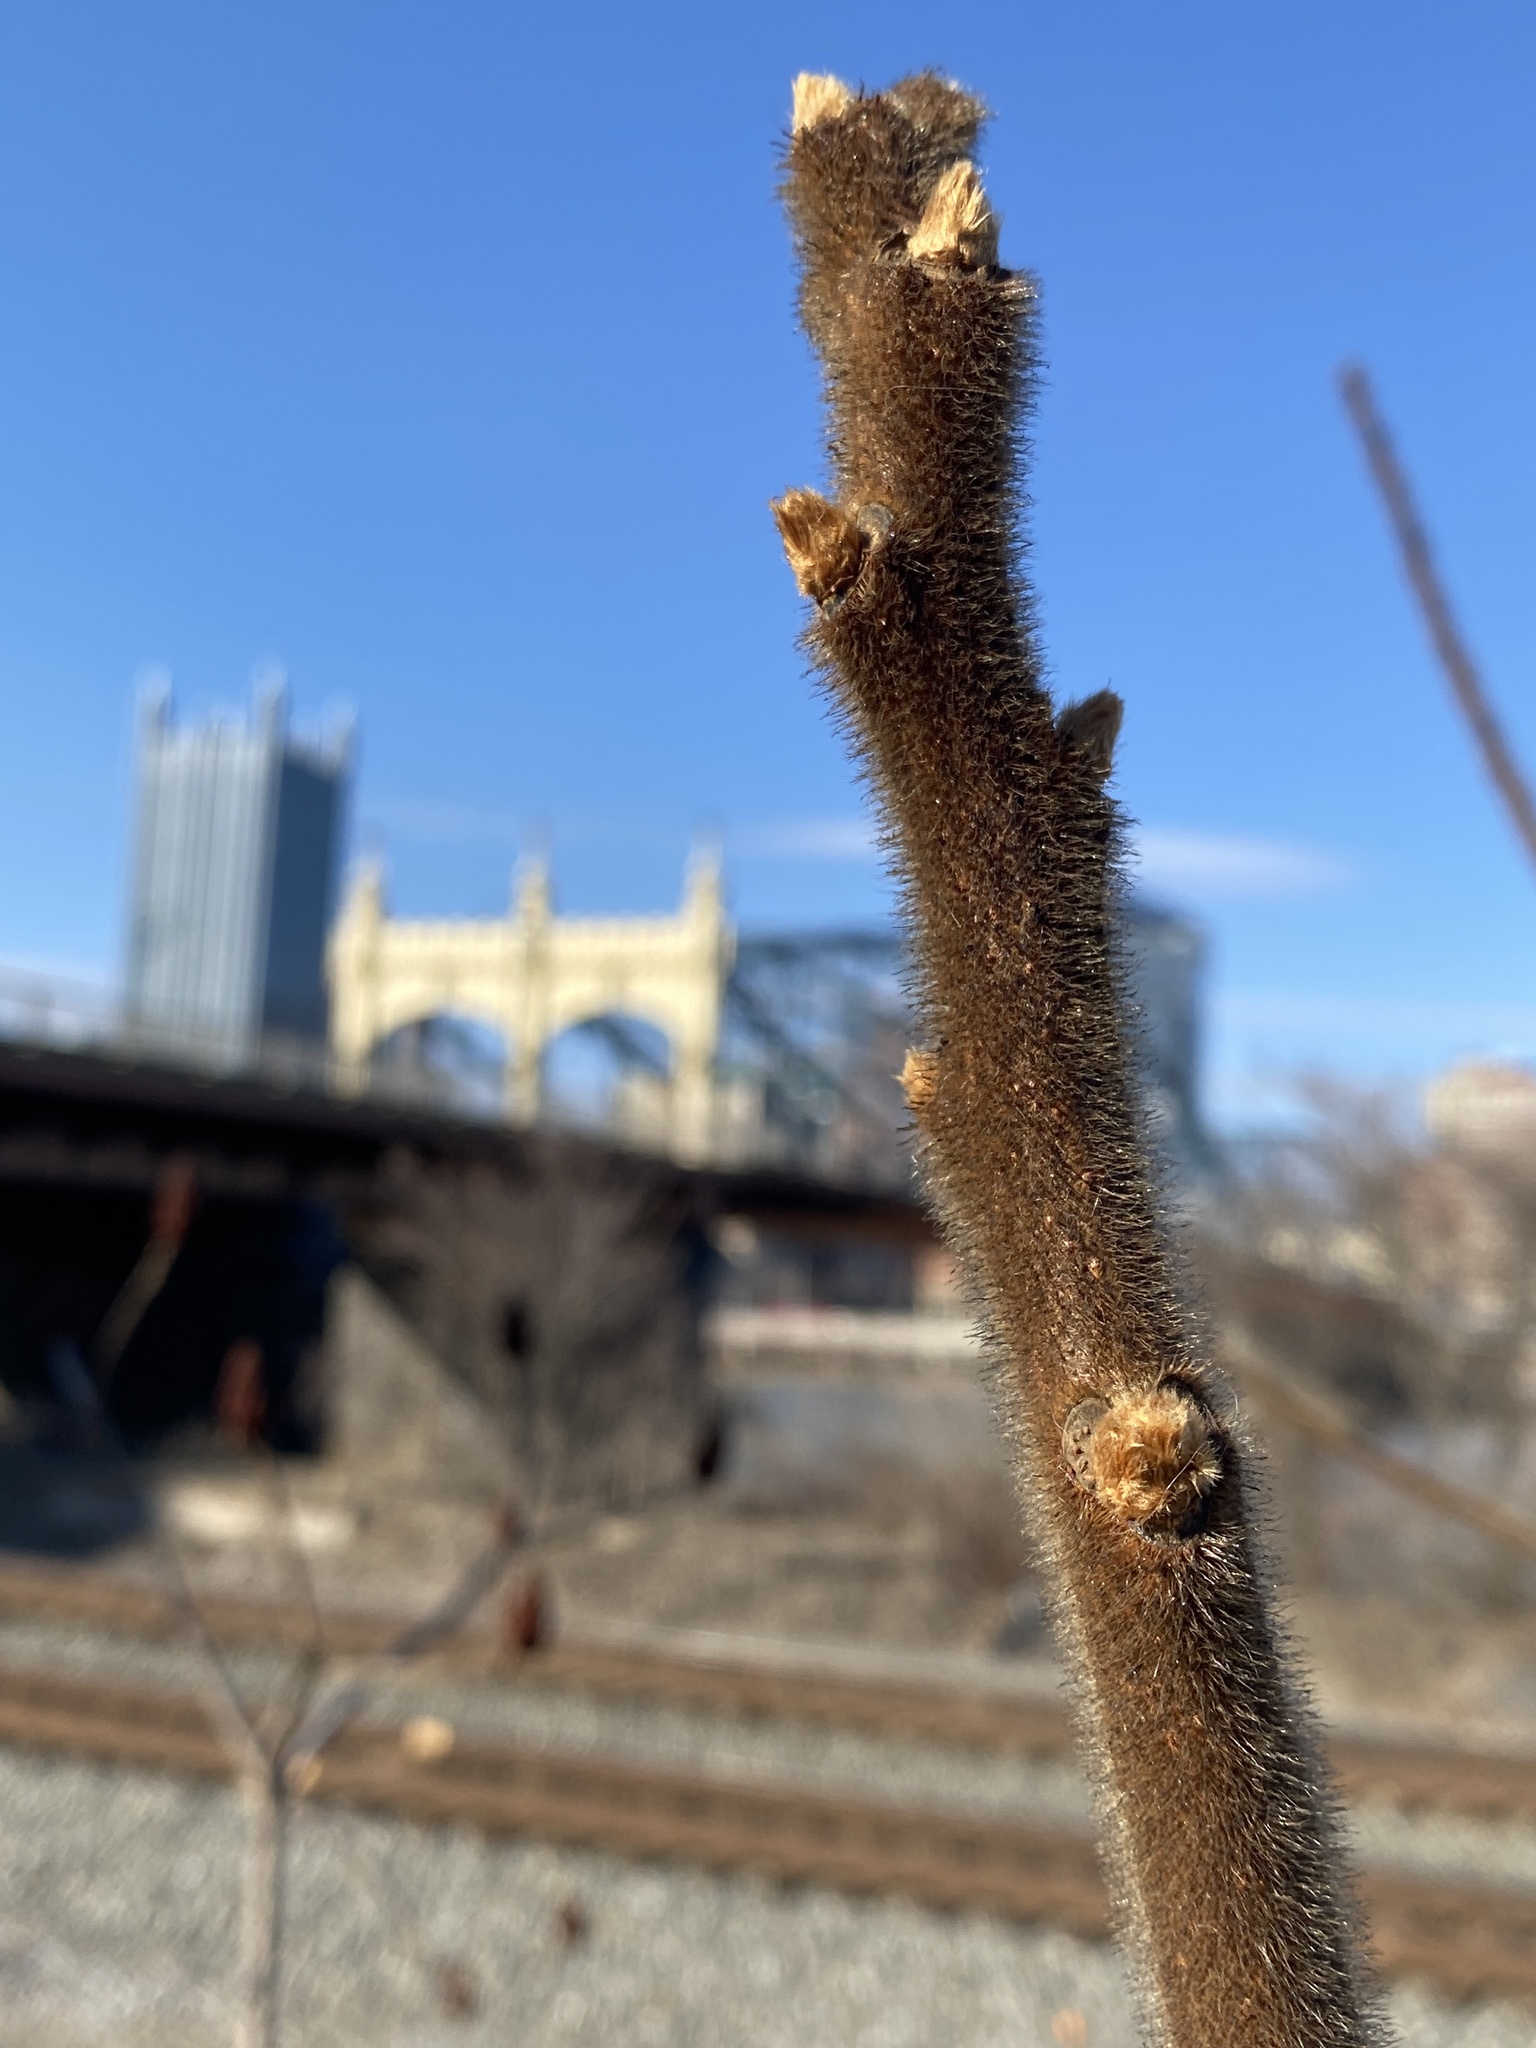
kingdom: Plantae
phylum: Tracheophyta
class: Magnoliopsida
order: Sapindales
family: Anacardiaceae
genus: Rhus
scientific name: Rhus typhina
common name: Staghorn sumac
